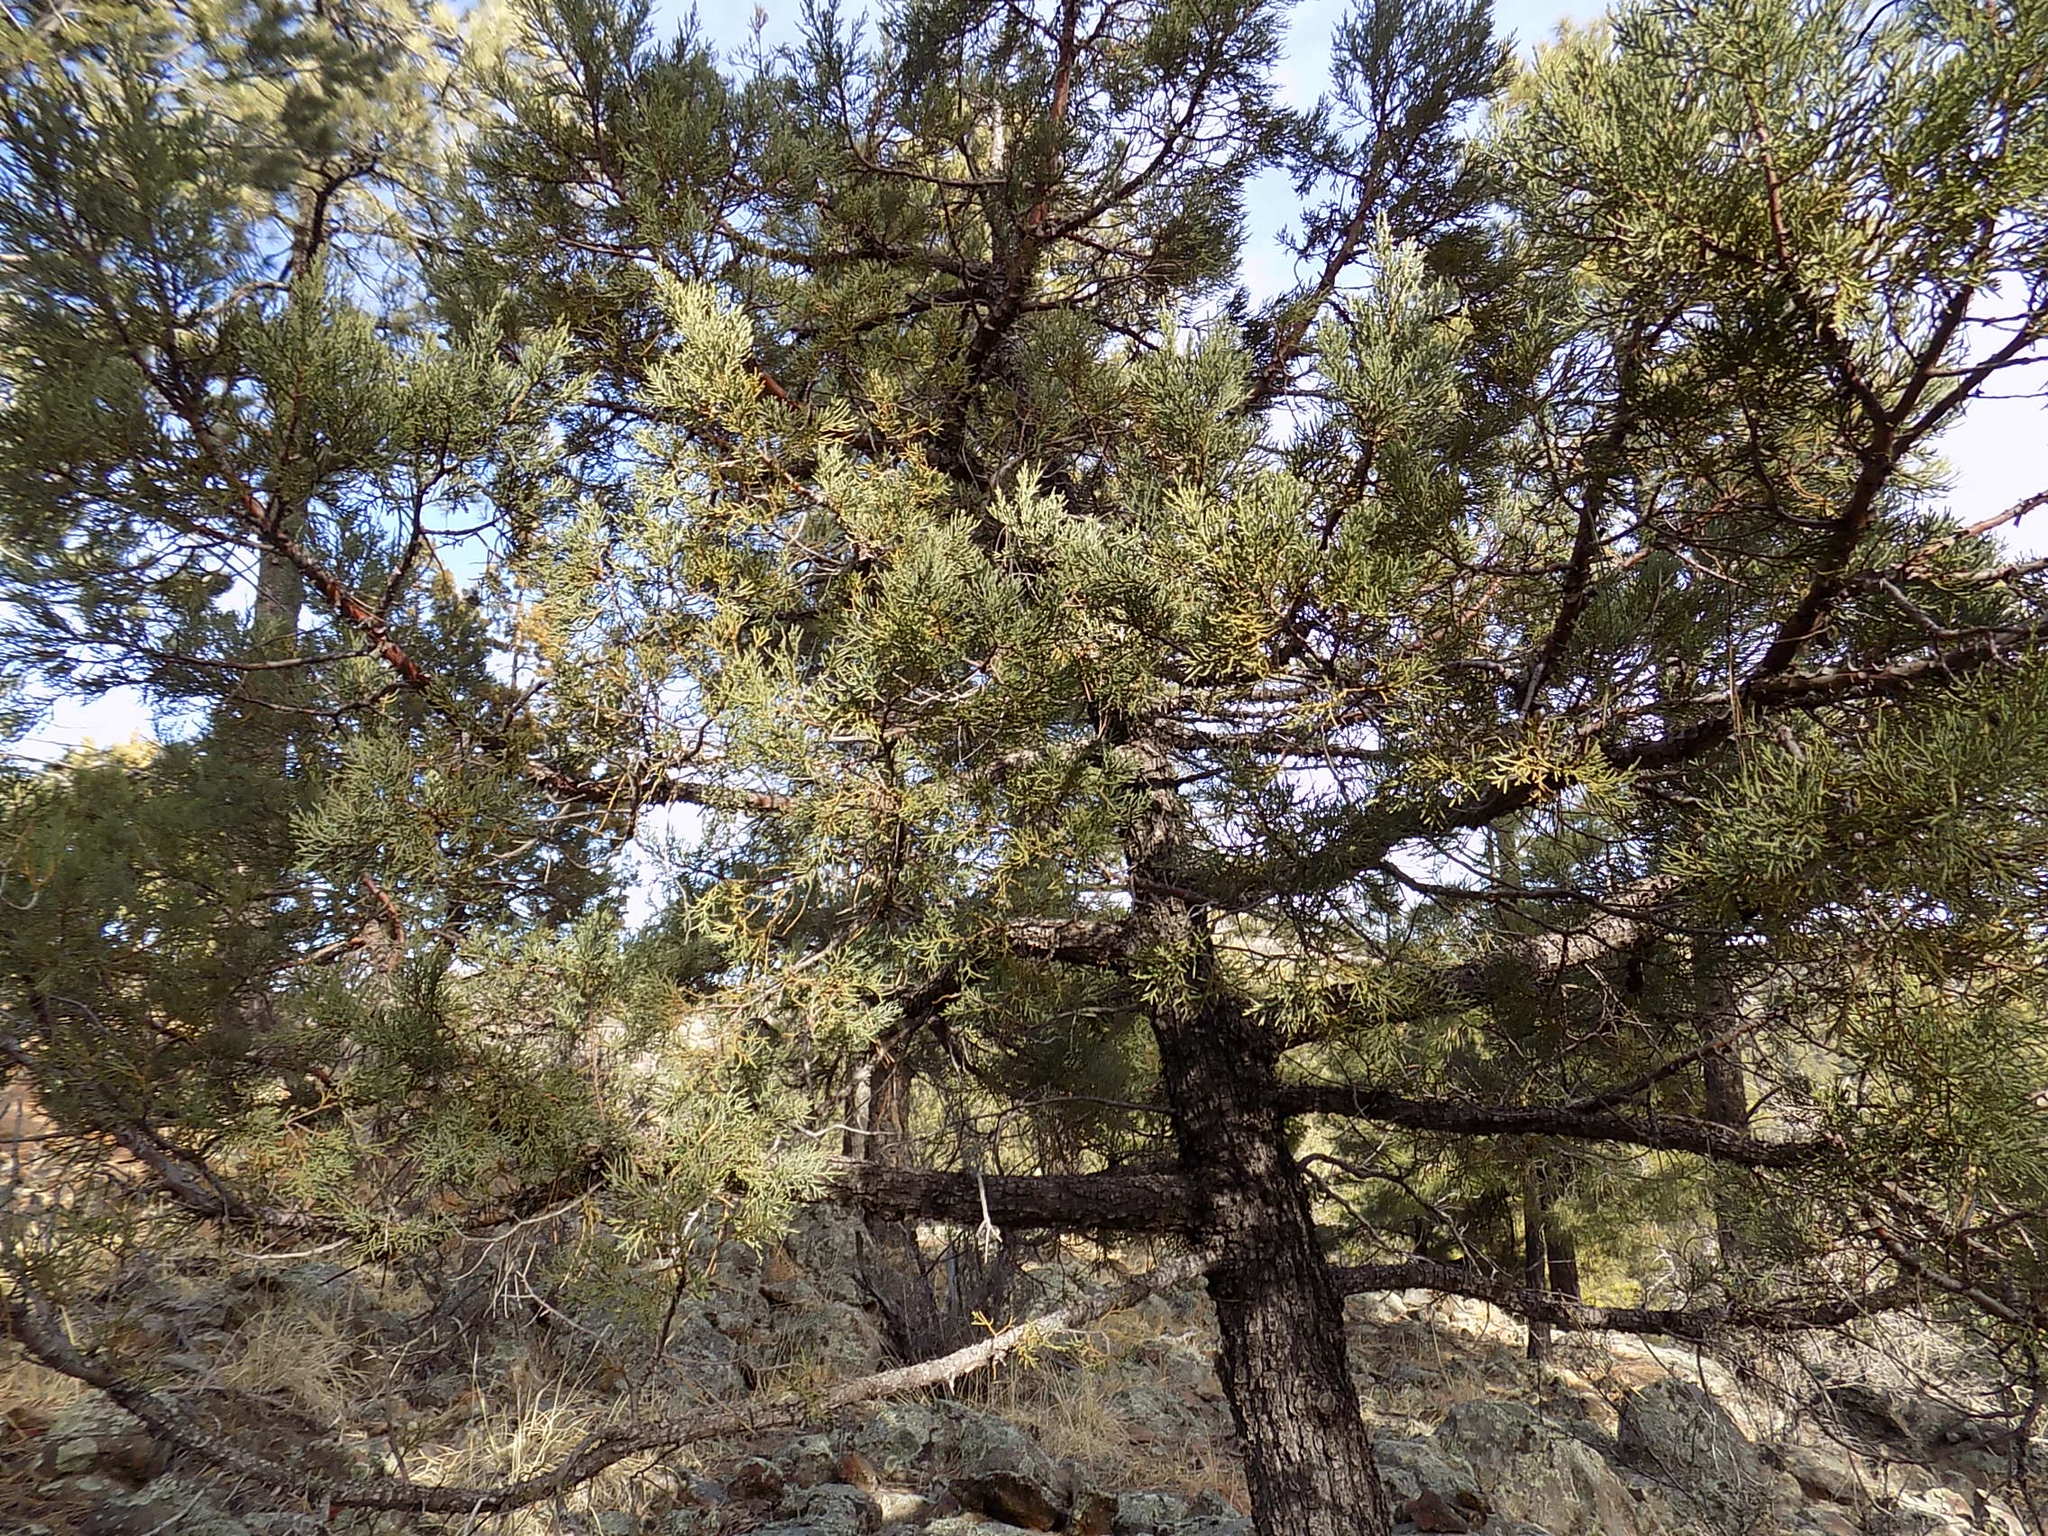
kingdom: Plantae
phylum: Tracheophyta
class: Pinopsida
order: Pinales
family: Cupressaceae
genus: Juniperus
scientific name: Juniperus deppeana
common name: Alligator juniper
